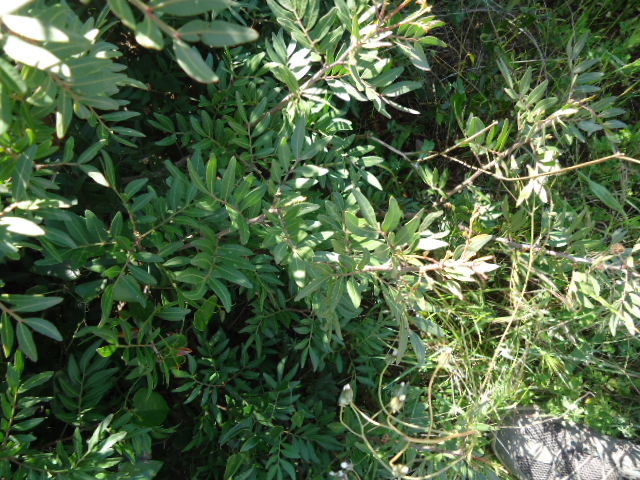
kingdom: Plantae
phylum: Tracheophyta
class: Magnoliopsida
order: Sapindales
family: Anacardiaceae
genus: Pistacia
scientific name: Pistacia lentiscus
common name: Lentisk
